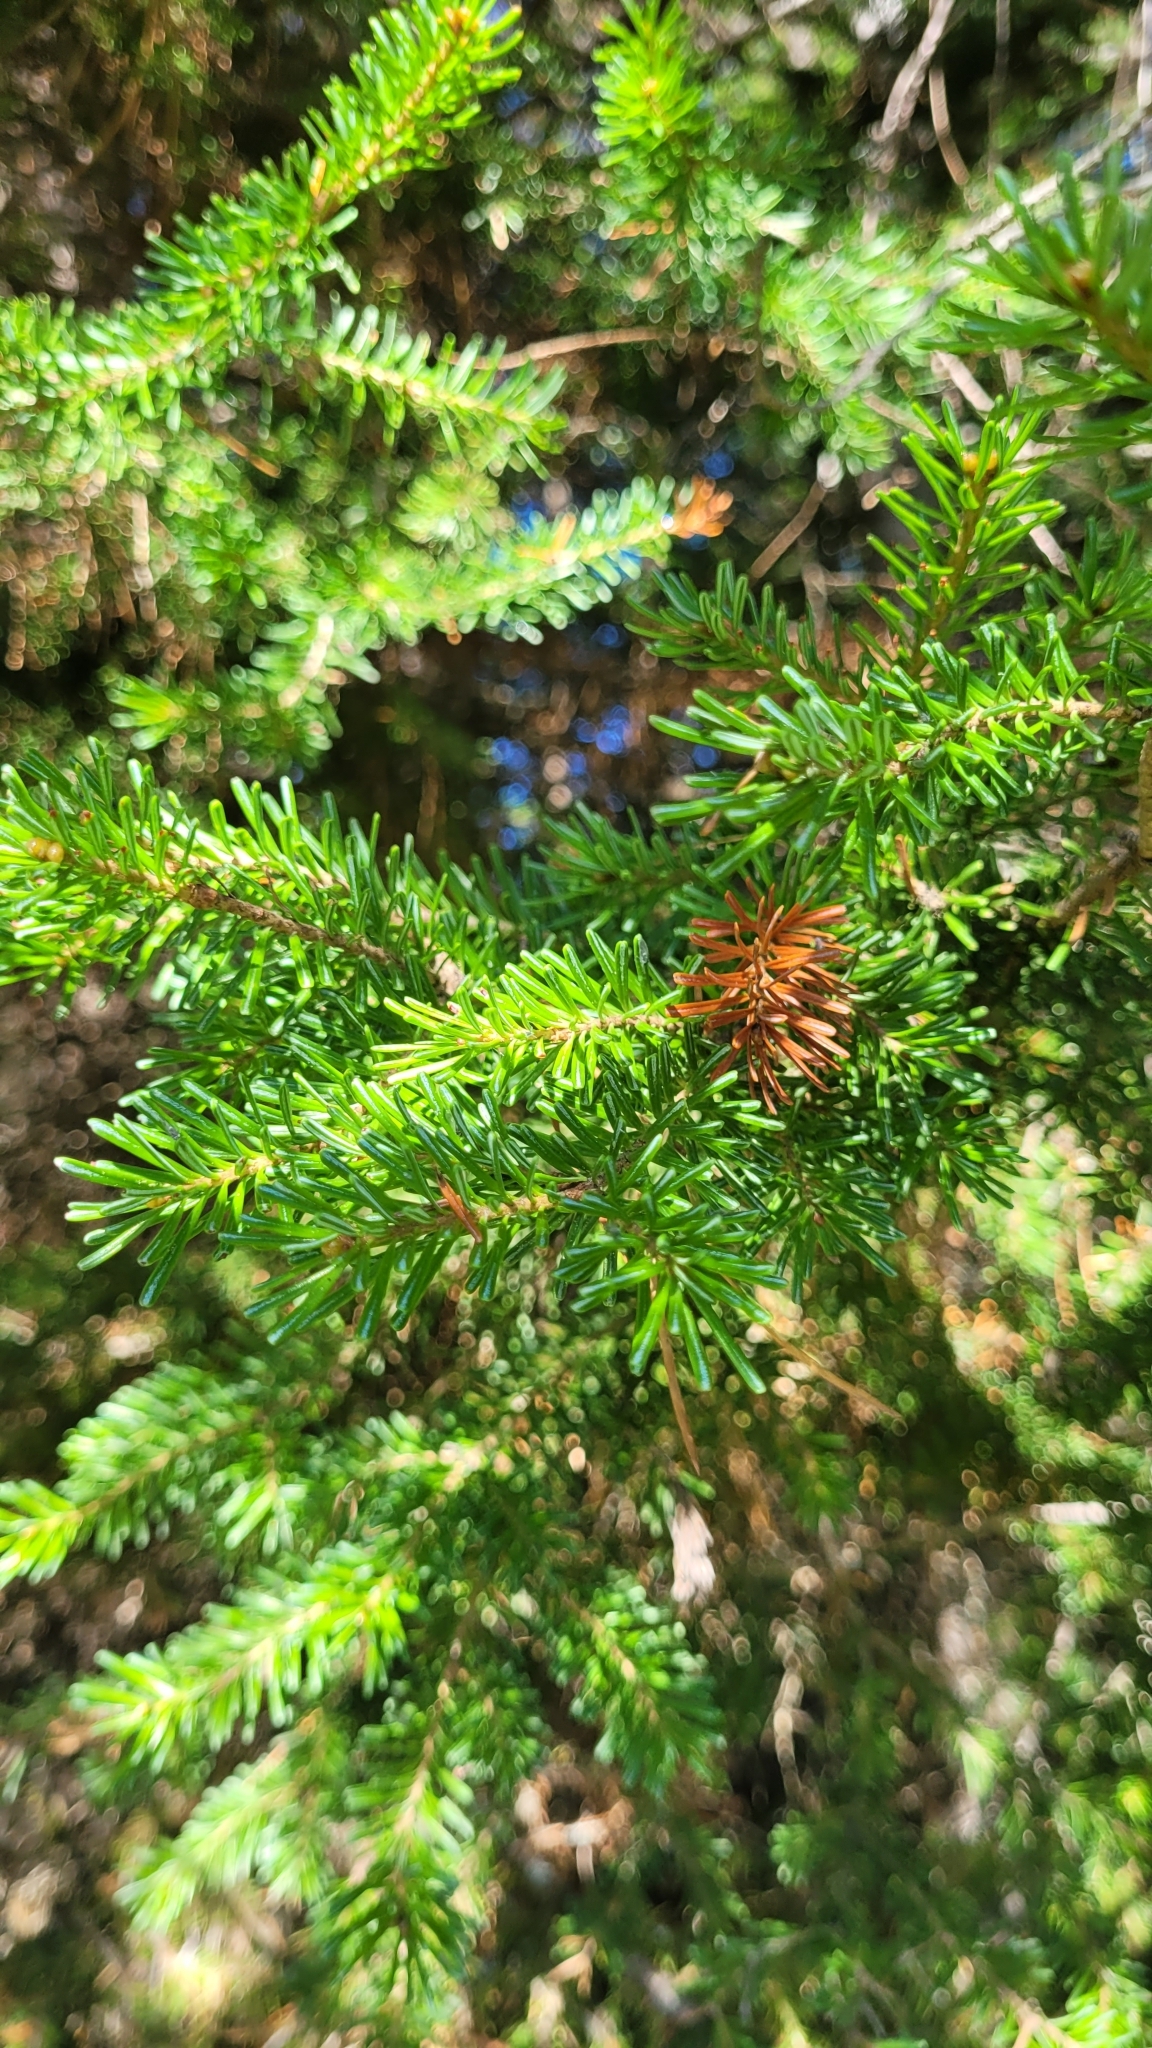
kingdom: Plantae
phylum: Tracheophyta
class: Pinopsida
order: Pinales
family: Pinaceae
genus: Abies
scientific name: Abies lasiocarpa
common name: Subalpine fir
